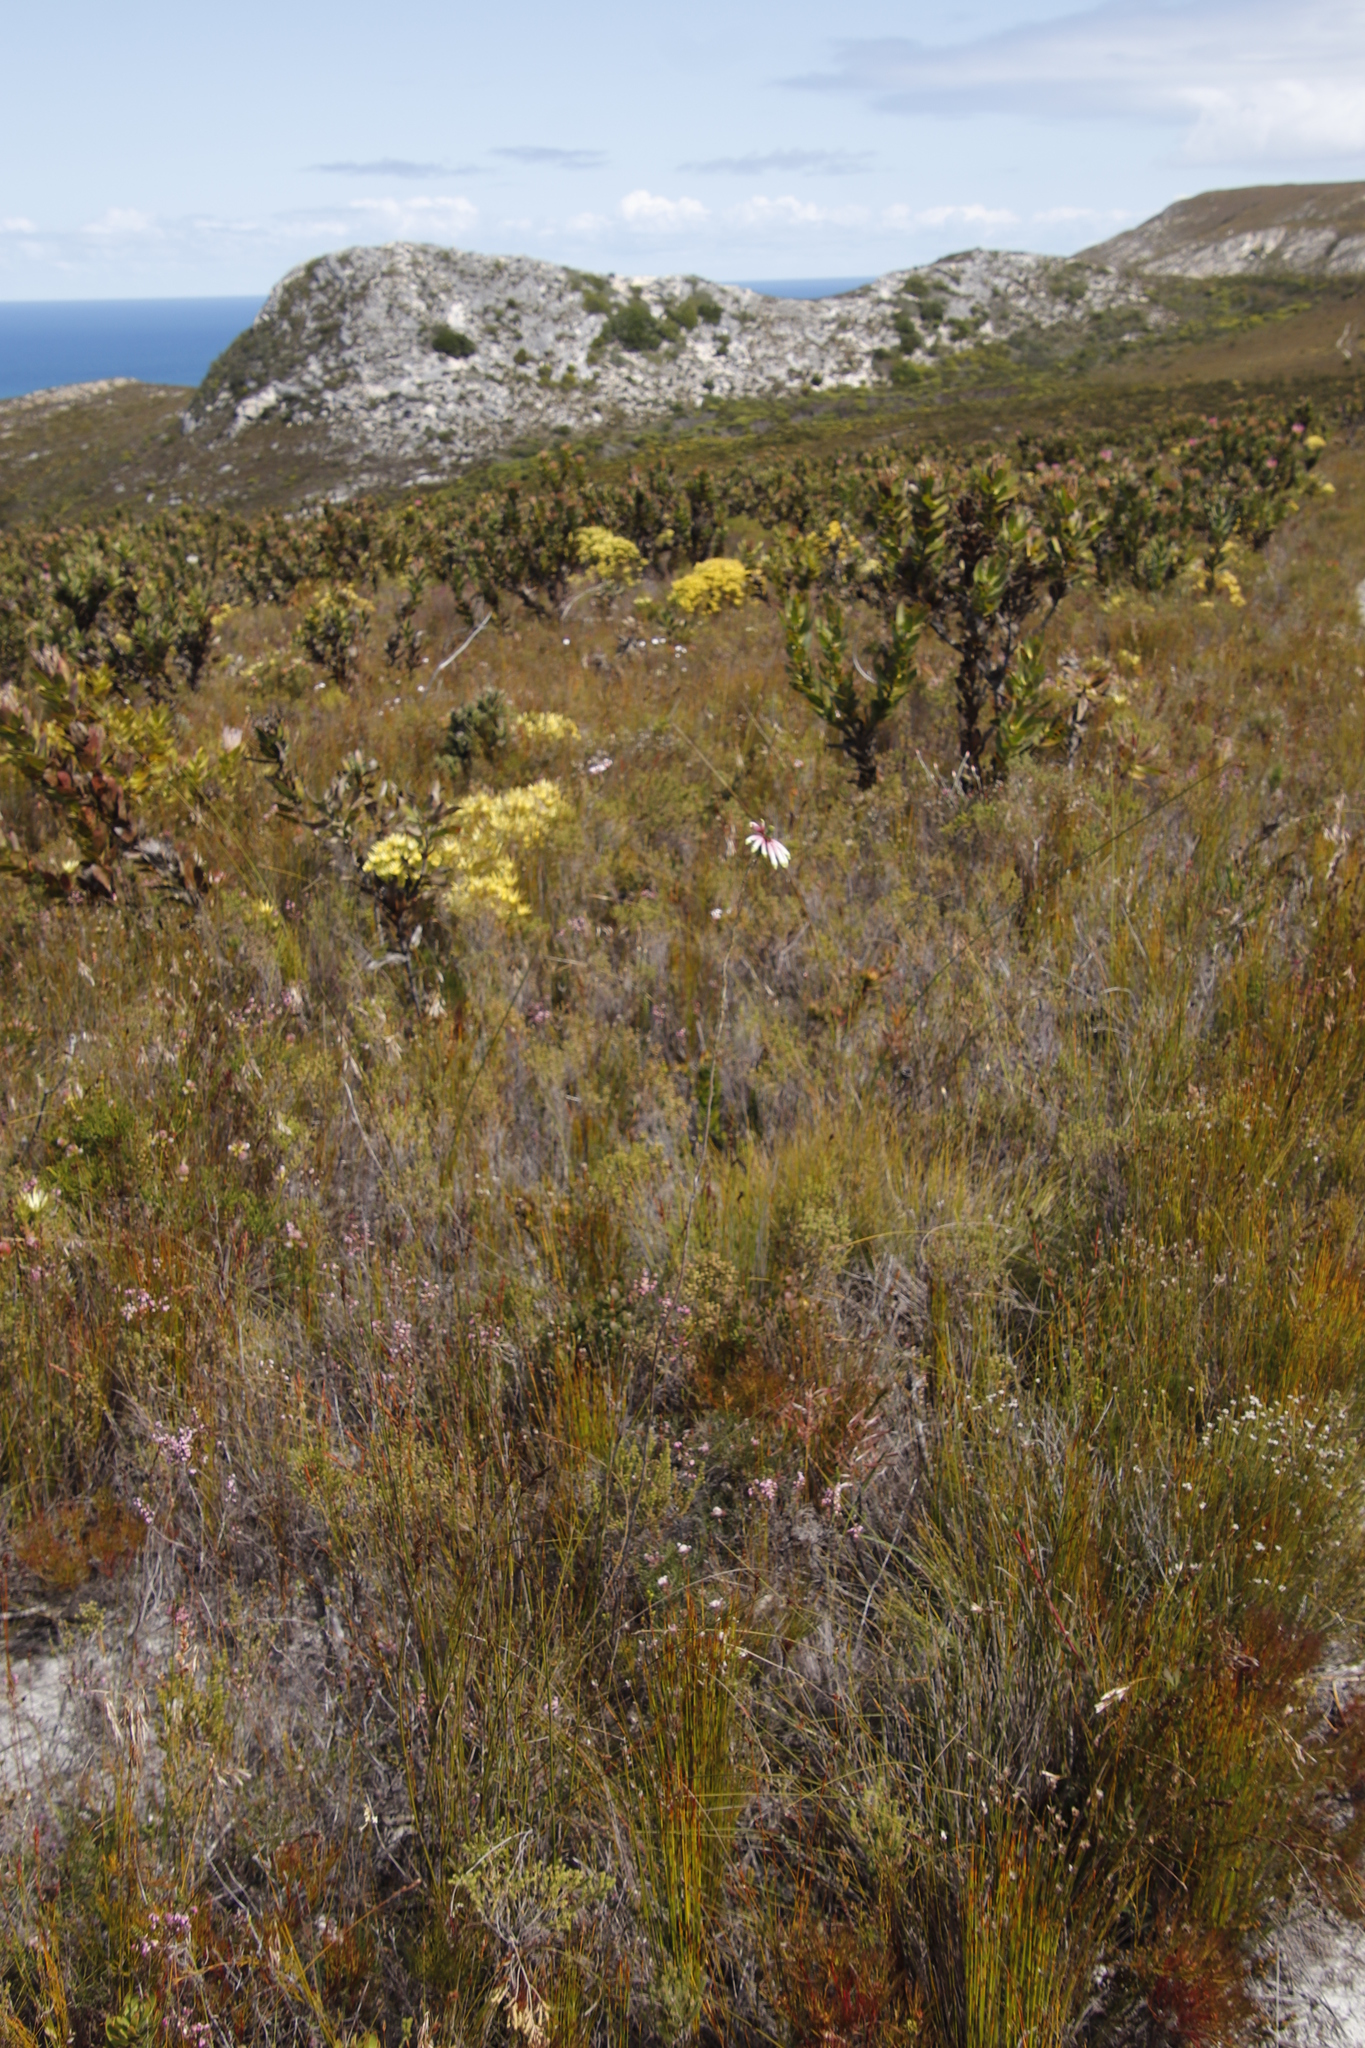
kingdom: Plantae
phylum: Tracheophyta
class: Magnoliopsida
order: Ericales
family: Ericaceae
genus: Erica
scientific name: Erica fascicularis
